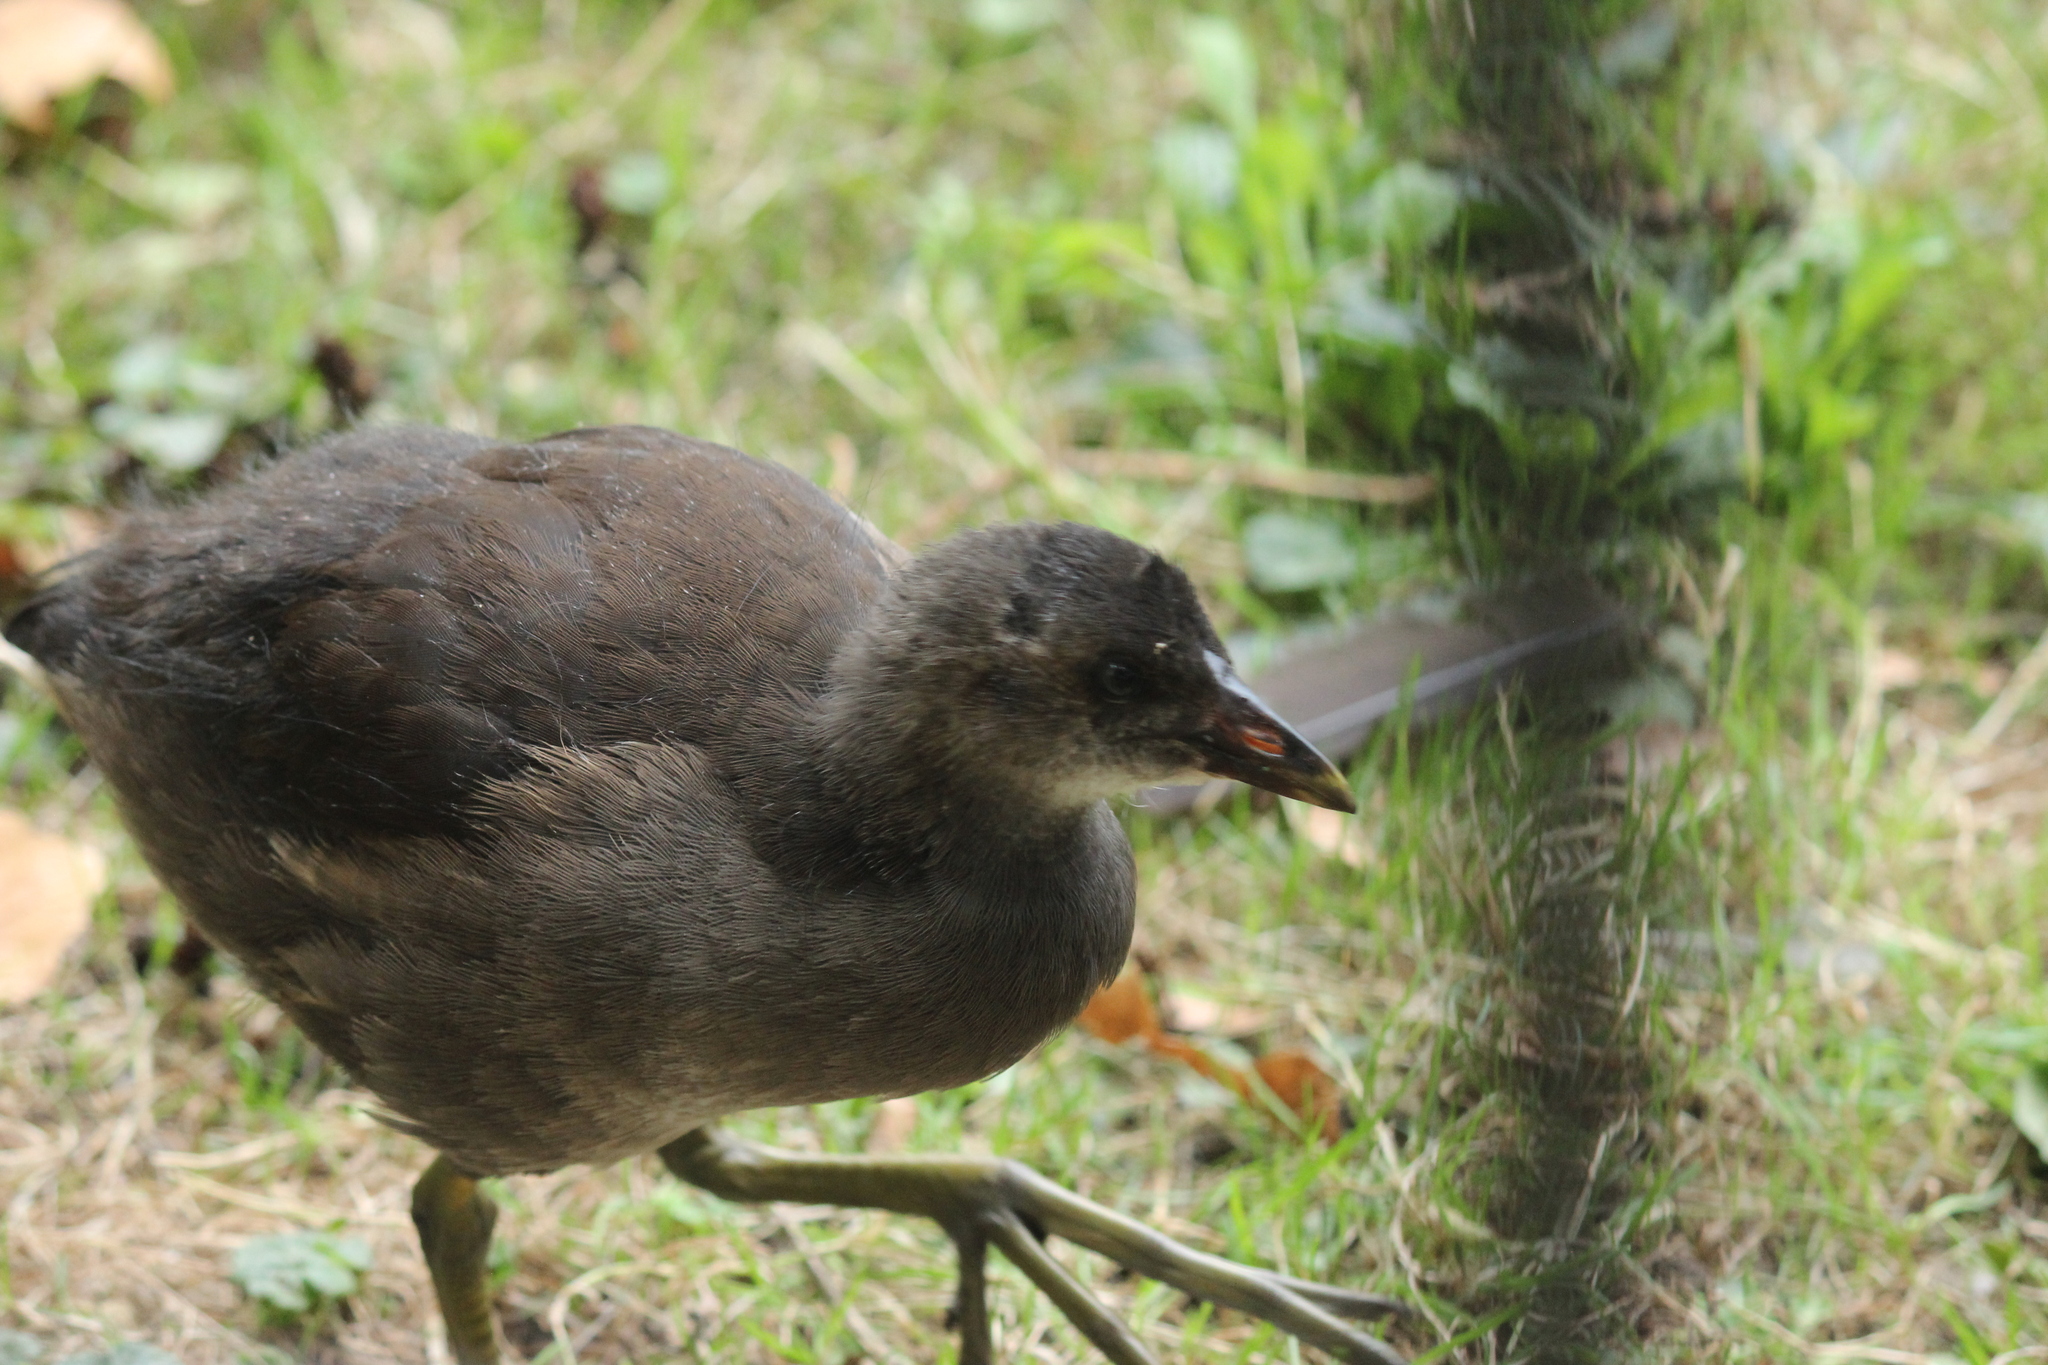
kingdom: Animalia
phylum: Chordata
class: Aves
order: Gruiformes
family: Rallidae
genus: Gallinula
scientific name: Gallinula chloropus
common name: Common moorhen
